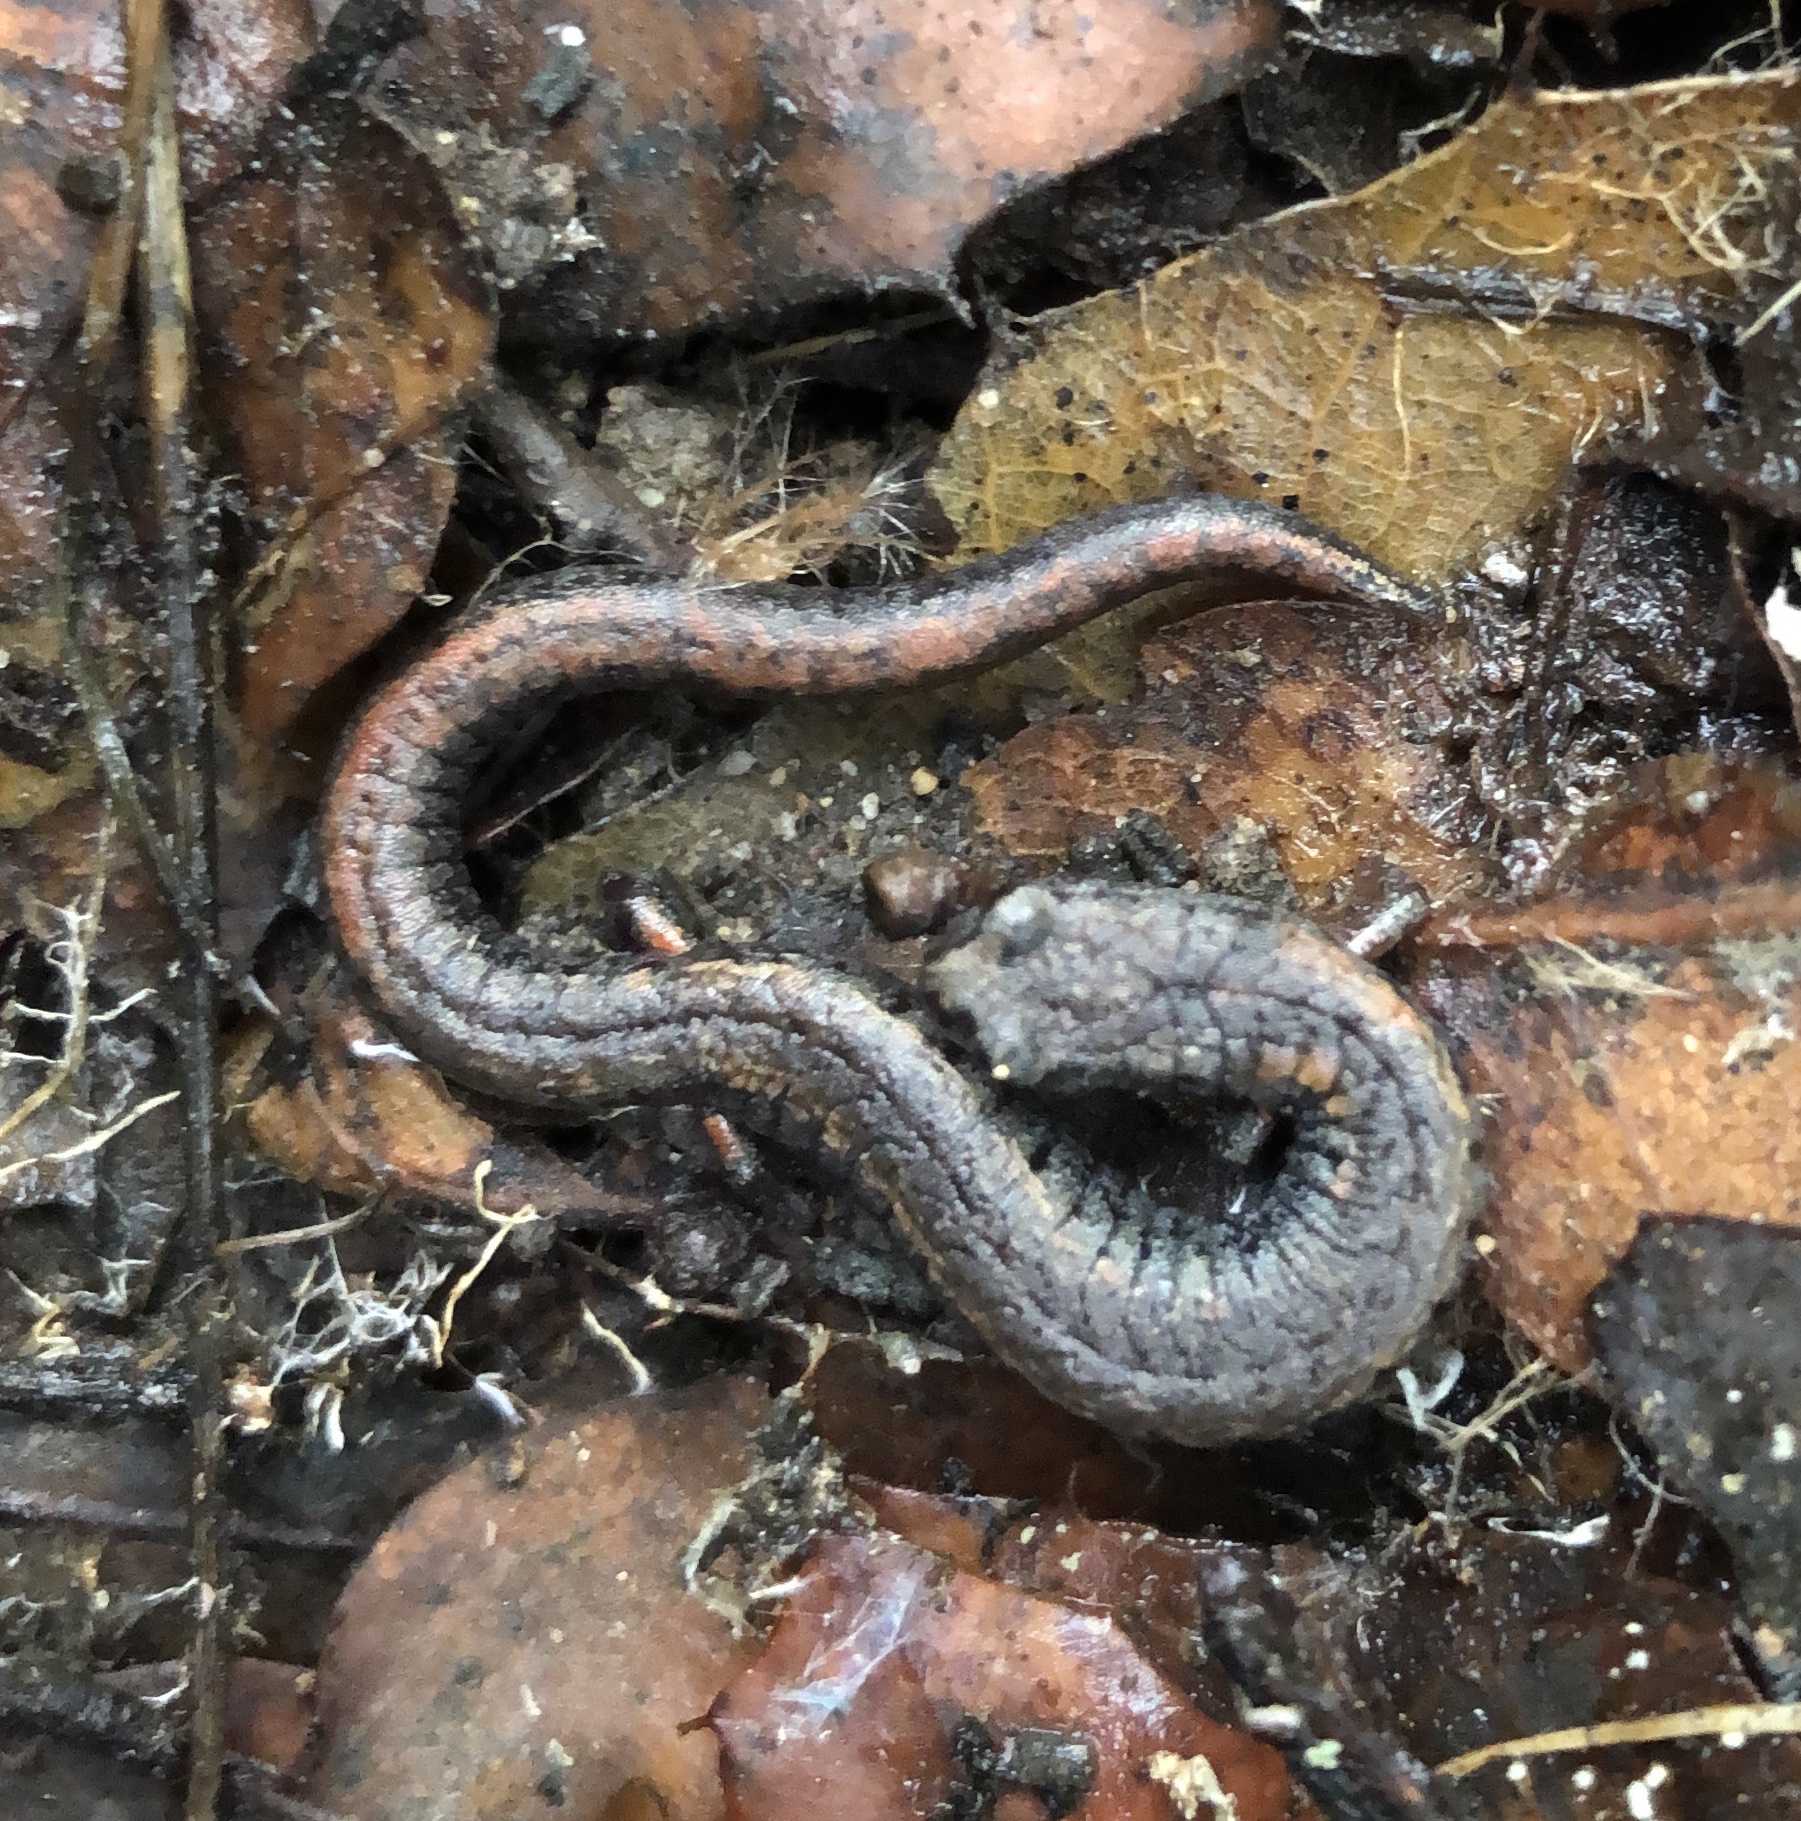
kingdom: Animalia
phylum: Chordata
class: Amphibia
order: Caudata
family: Plethodontidae
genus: Batrachoseps
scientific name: Batrachoseps attenuatus
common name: California slender salamander
